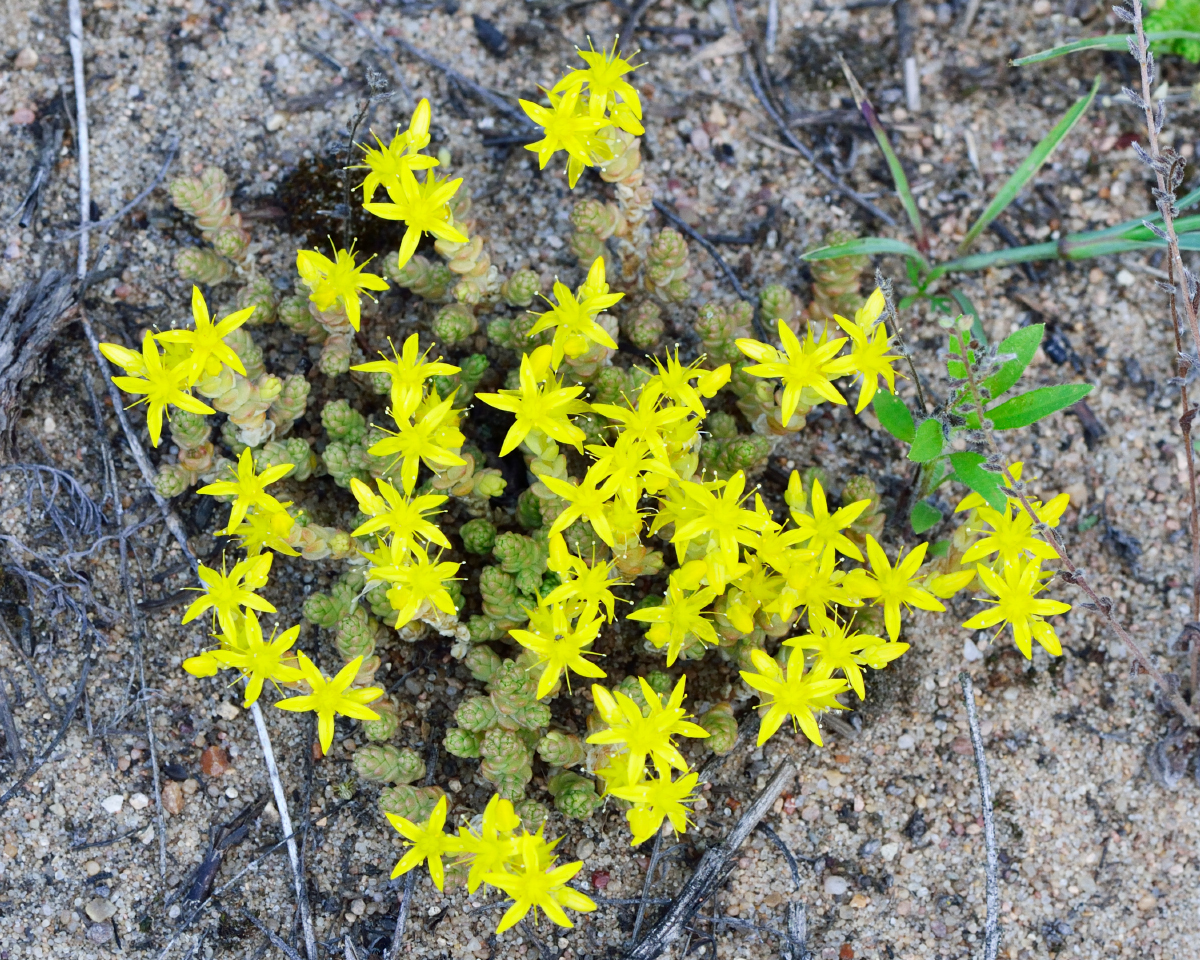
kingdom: Plantae
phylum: Tracheophyta
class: Magnoliopsida
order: Saxifragales
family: Crassulaceae
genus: Sedum
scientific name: Sedum acre
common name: Biting stonecrop
